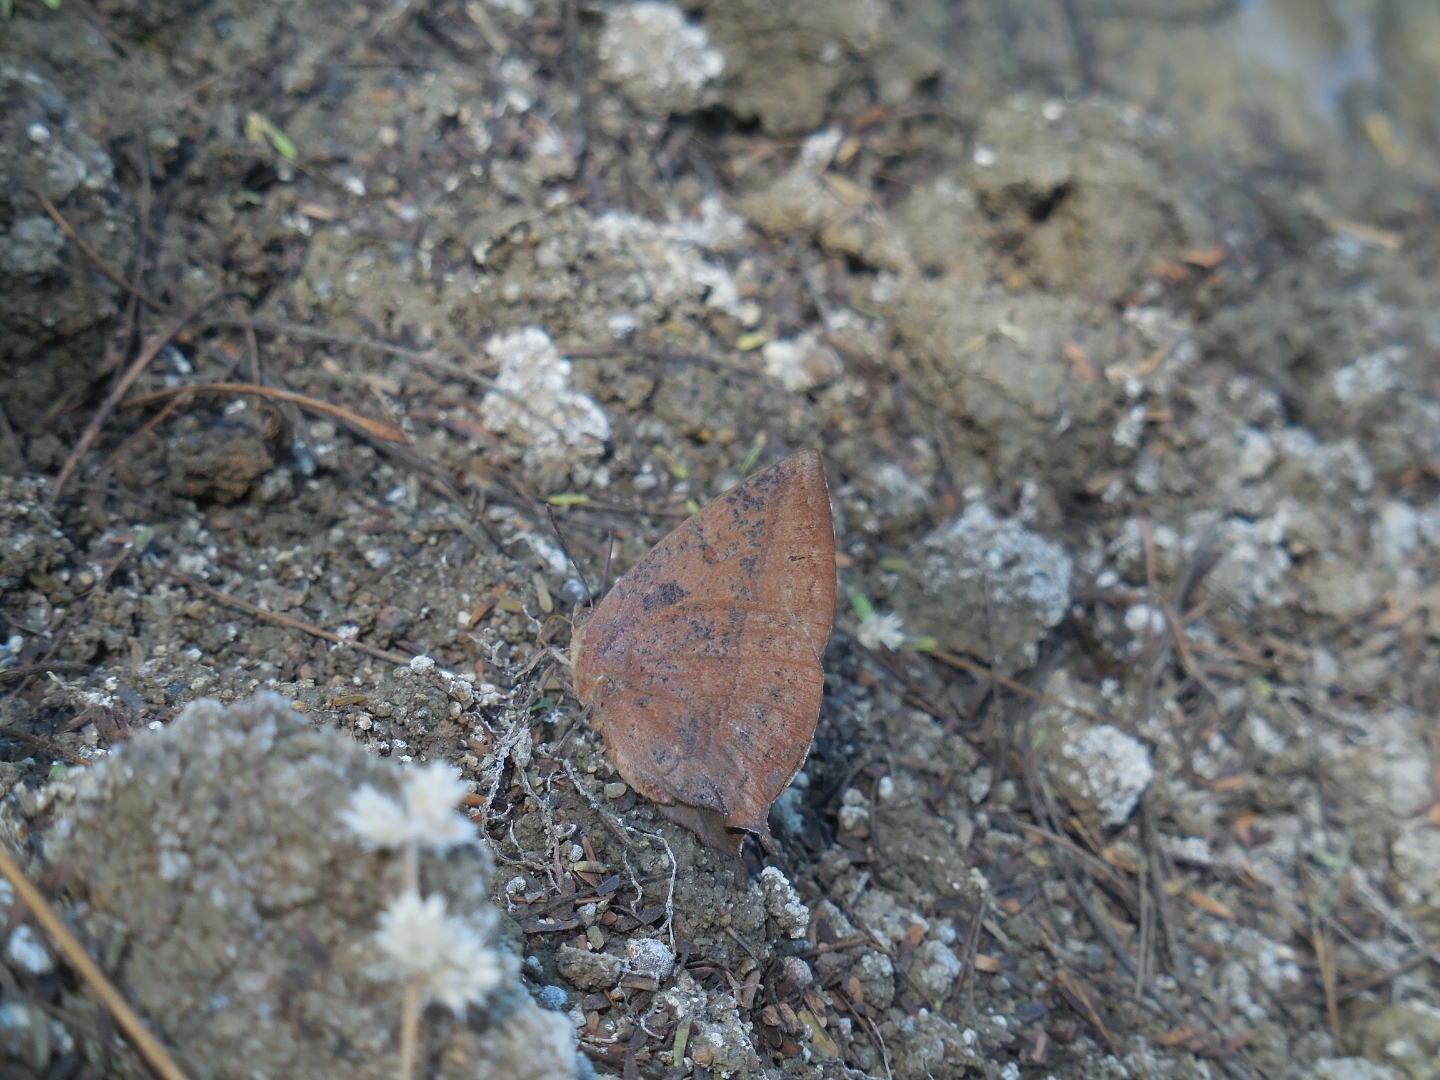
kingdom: Animalia
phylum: Arthropoda
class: Insecta
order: Lepidoptera
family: Lycaenidae
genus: Amblypodia
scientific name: Amblypodia anita
